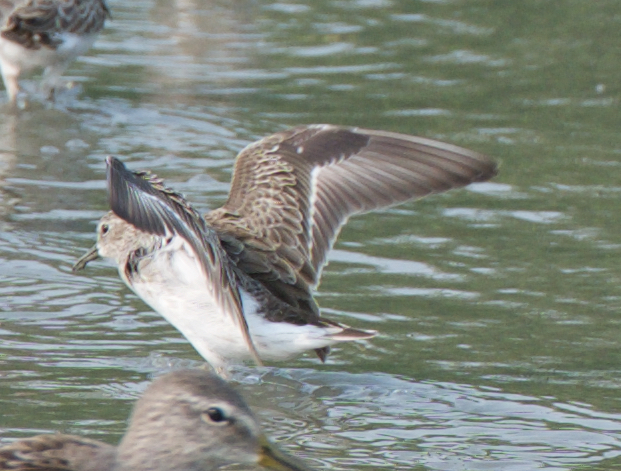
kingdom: Animalia
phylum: Chordata
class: Aves
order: Charadriiformes
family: Scolopacidae
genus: Calidris
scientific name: Calidris minutilla
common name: Least sandpiper
